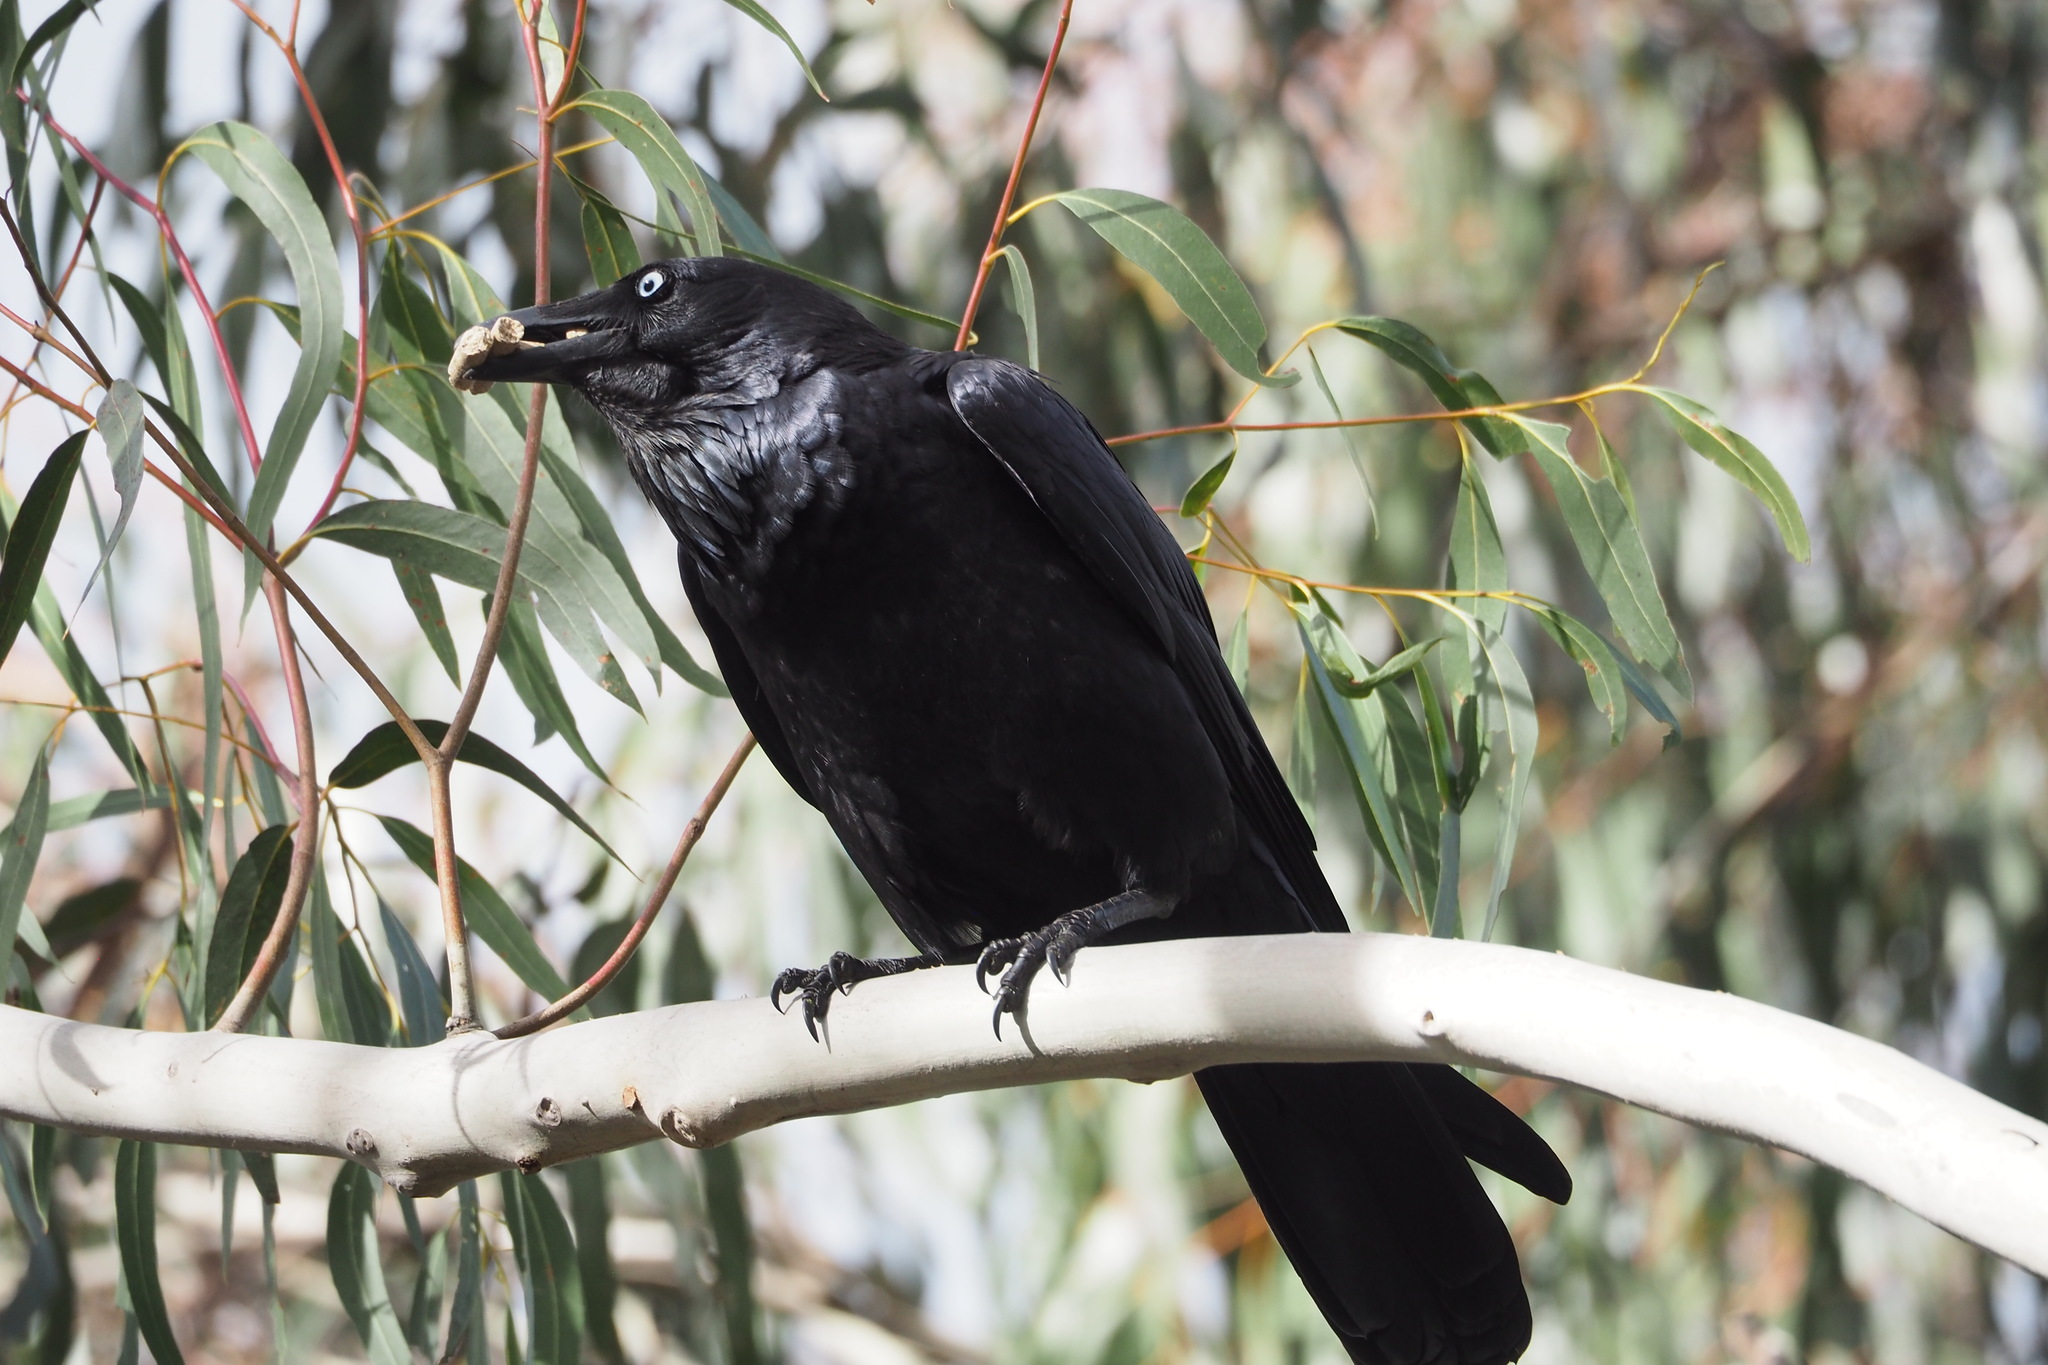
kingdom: Animalia
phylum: Chordata
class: Aves
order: Passeriformes
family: Corvidae
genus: Corvus
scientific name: Corvus coronoides
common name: Australian raven
